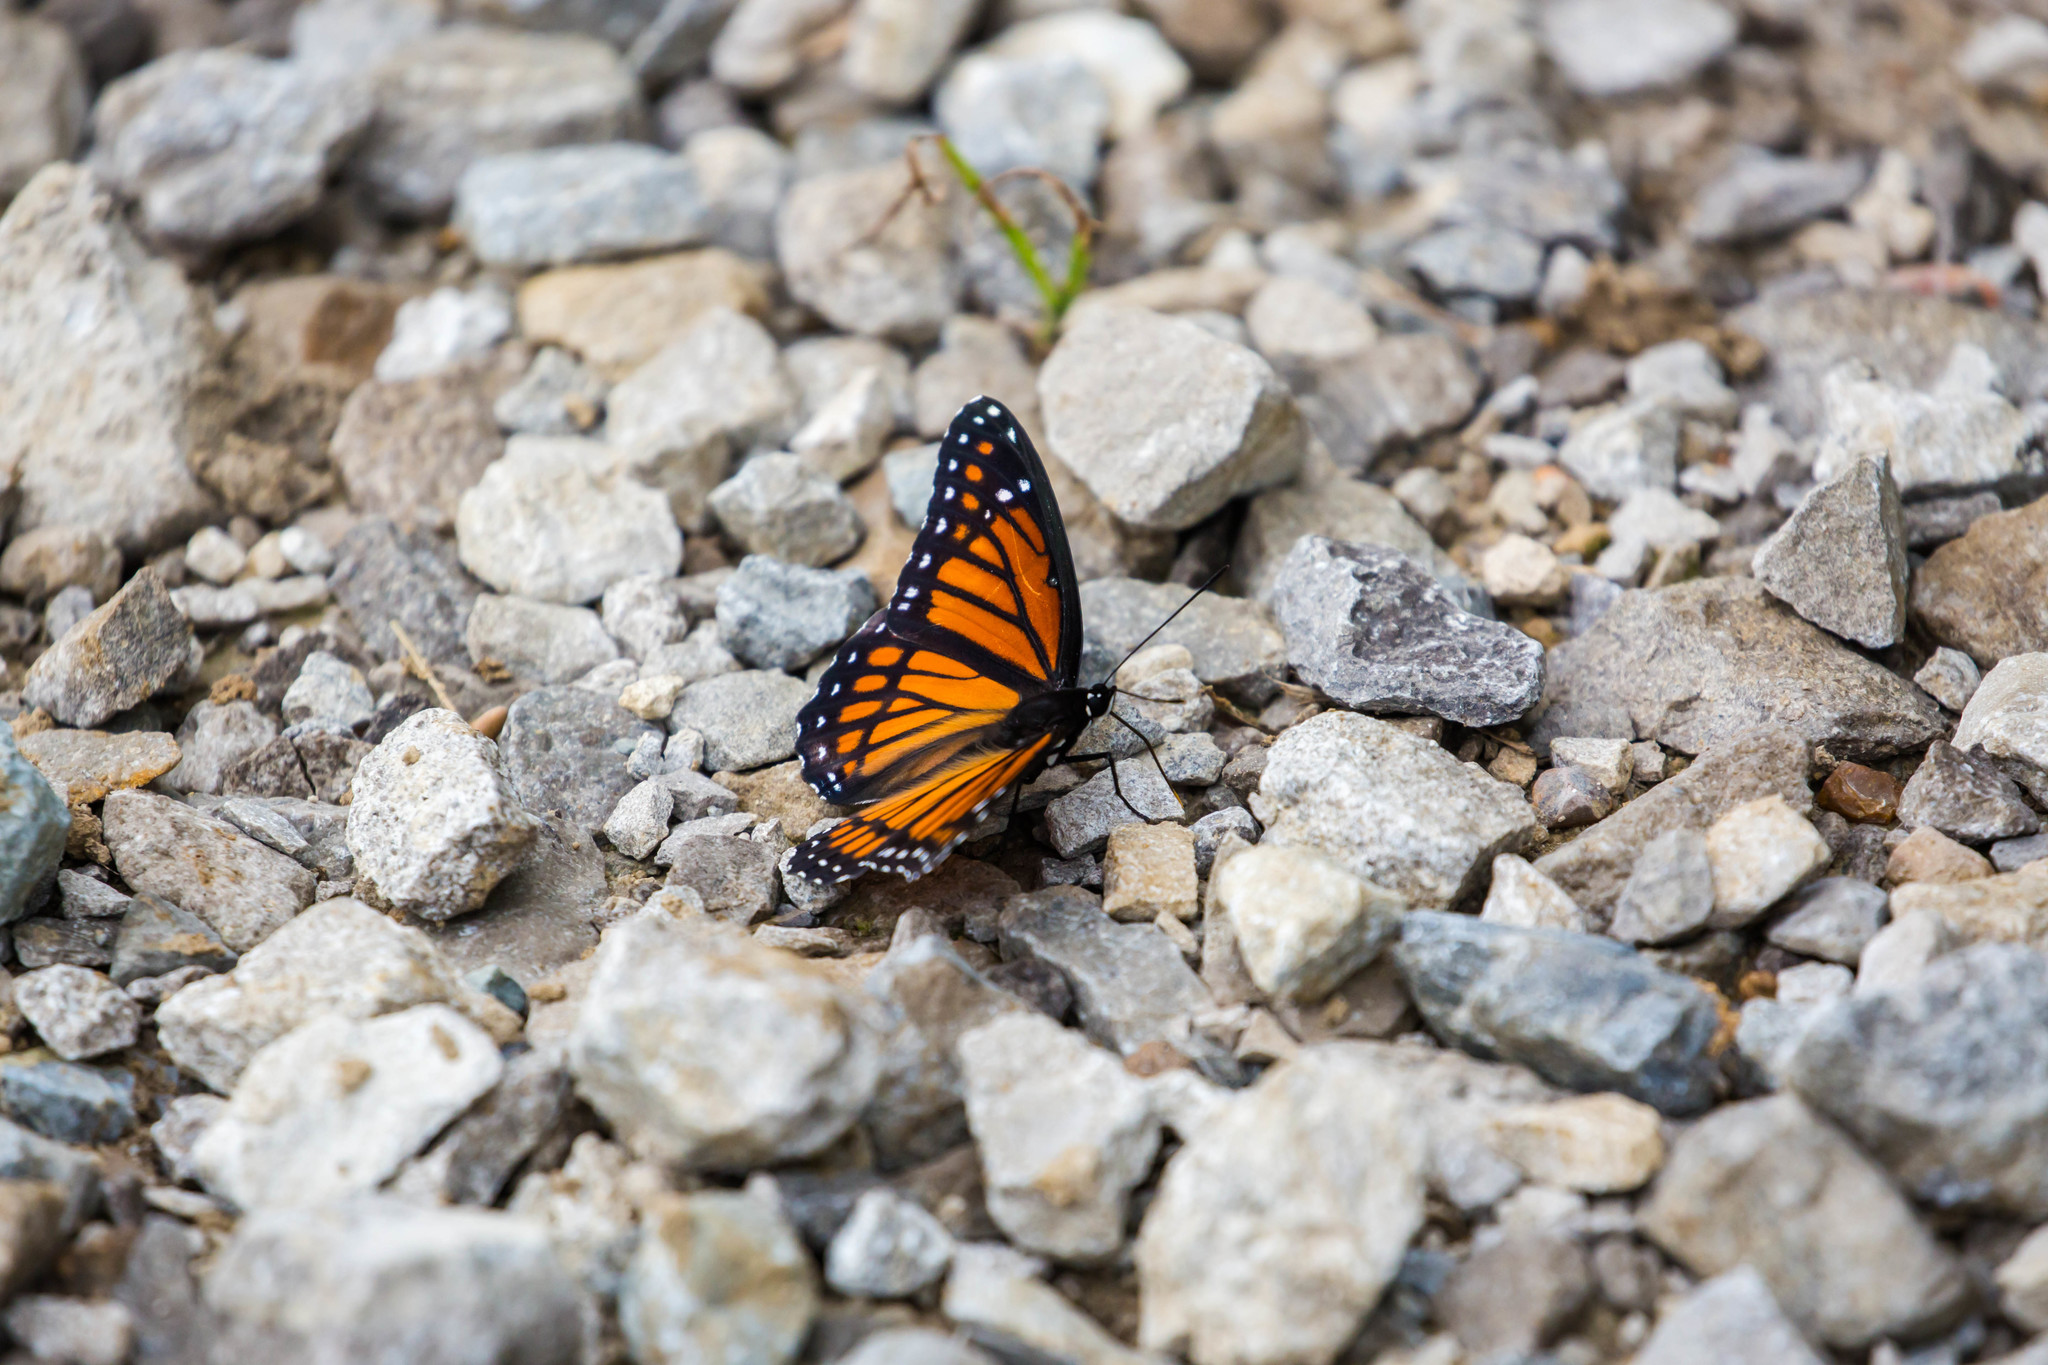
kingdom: Animalia
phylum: Arthropoda
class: Insecta
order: Lepidoptera
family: Nymphalidae
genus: Limenitis
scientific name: Limenitis archippus
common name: Viceroy
